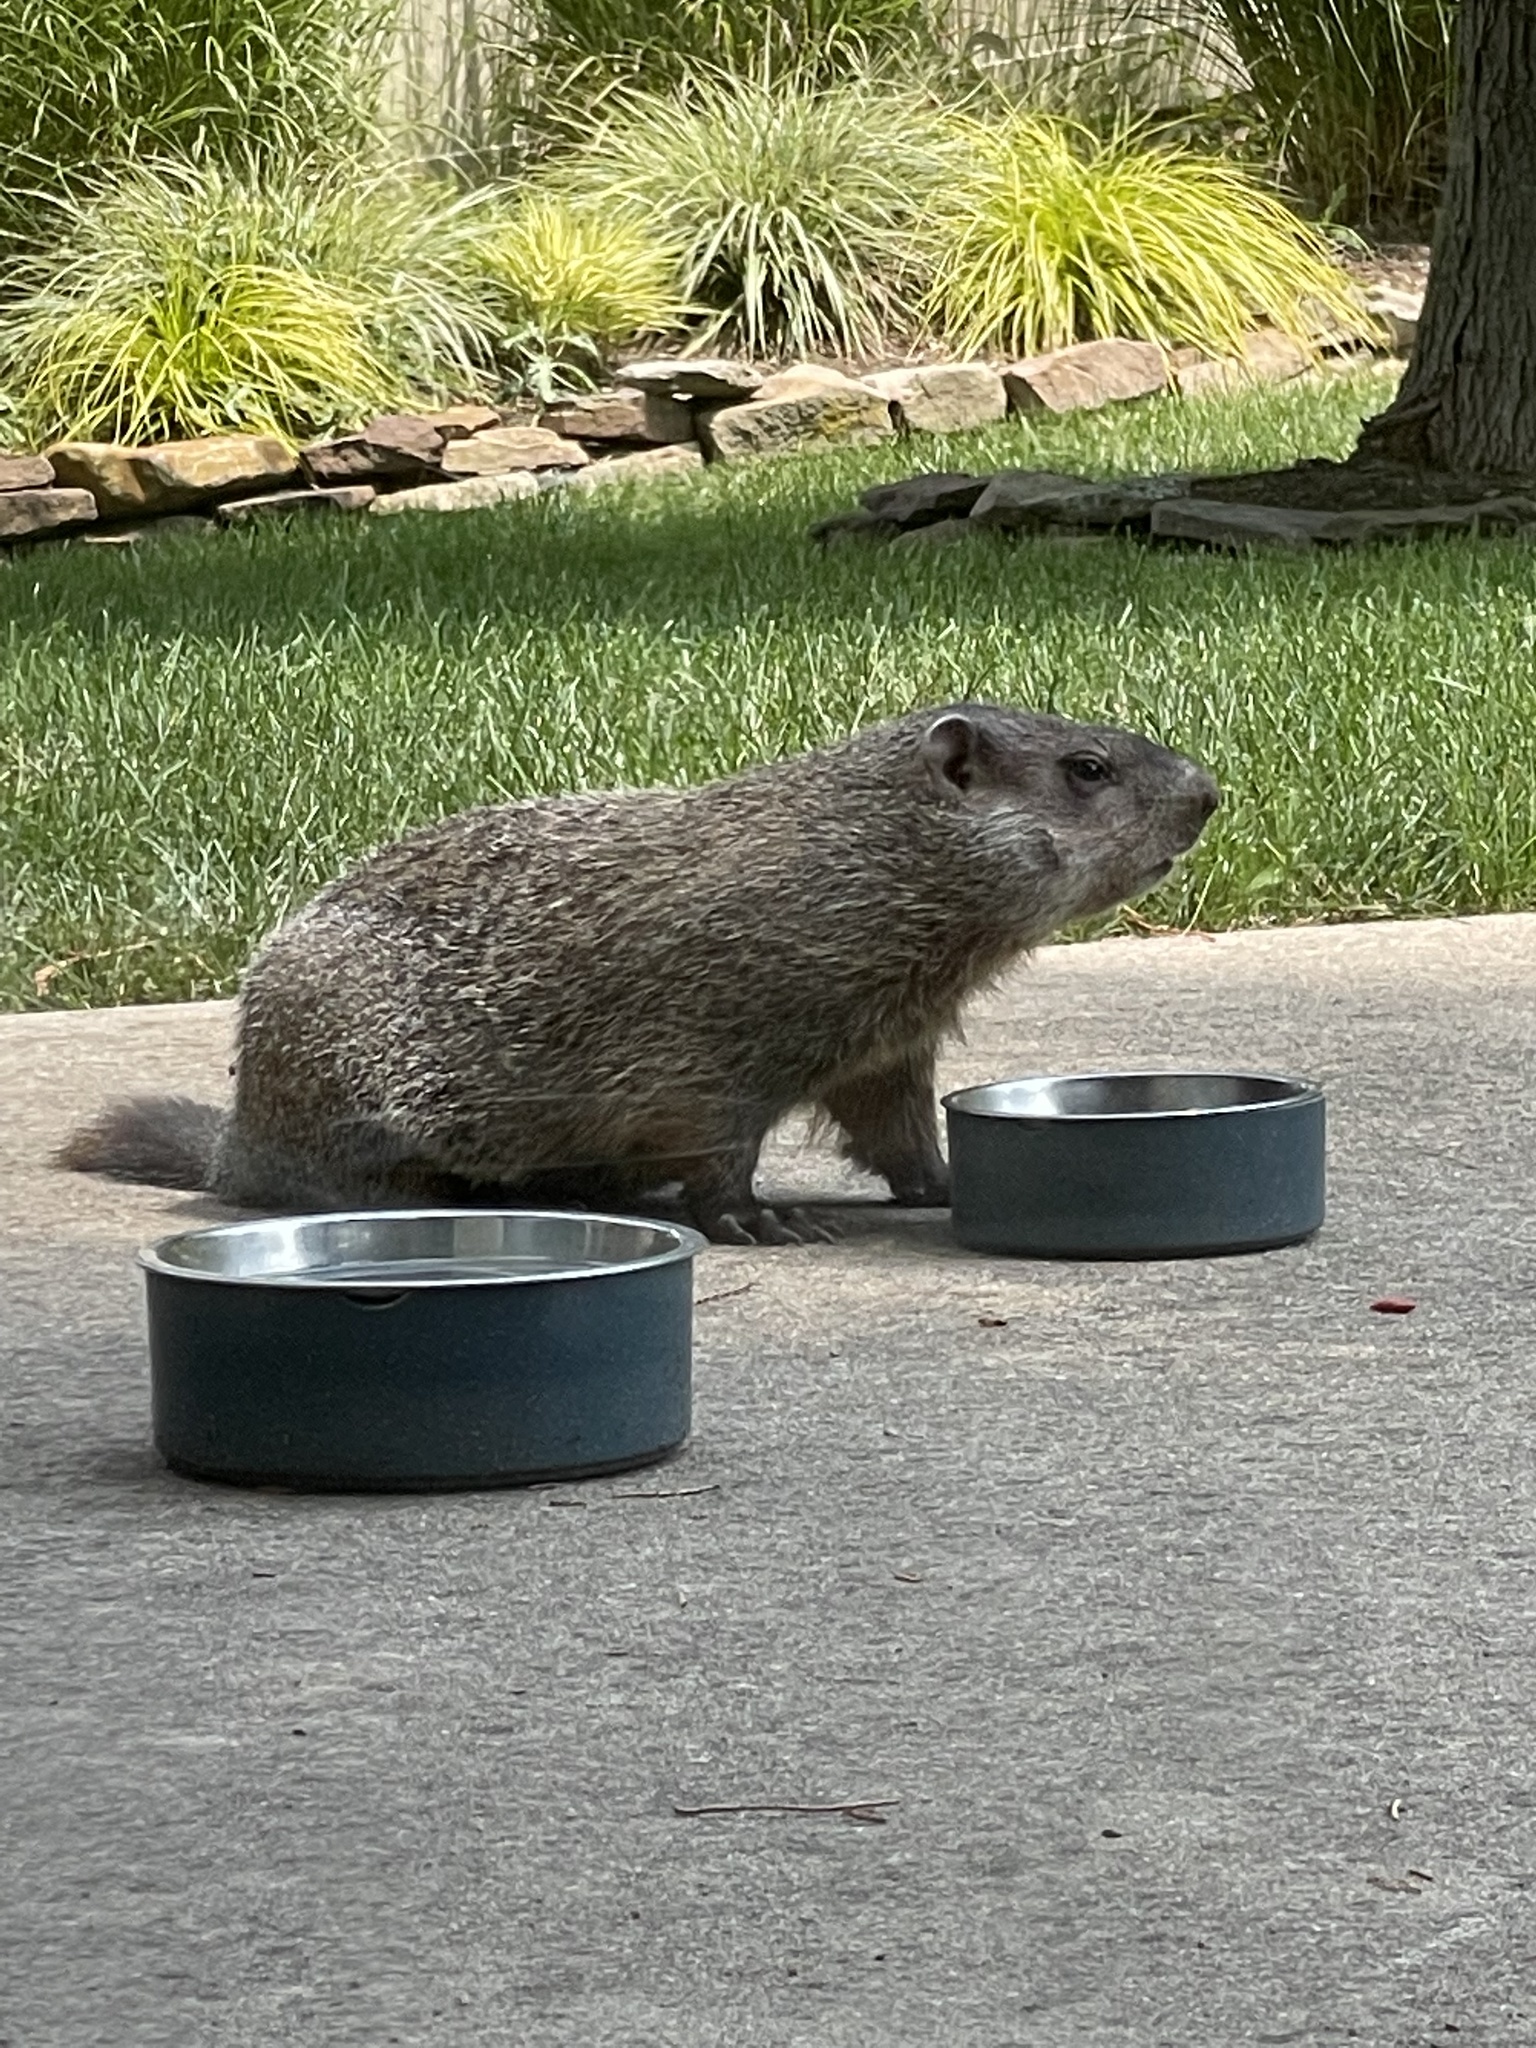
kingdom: Animalia
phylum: Chordata
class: Mammalia
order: Rodentia
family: Sciuridae
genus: Marmota
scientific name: Marmota monax
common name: Groundhog
